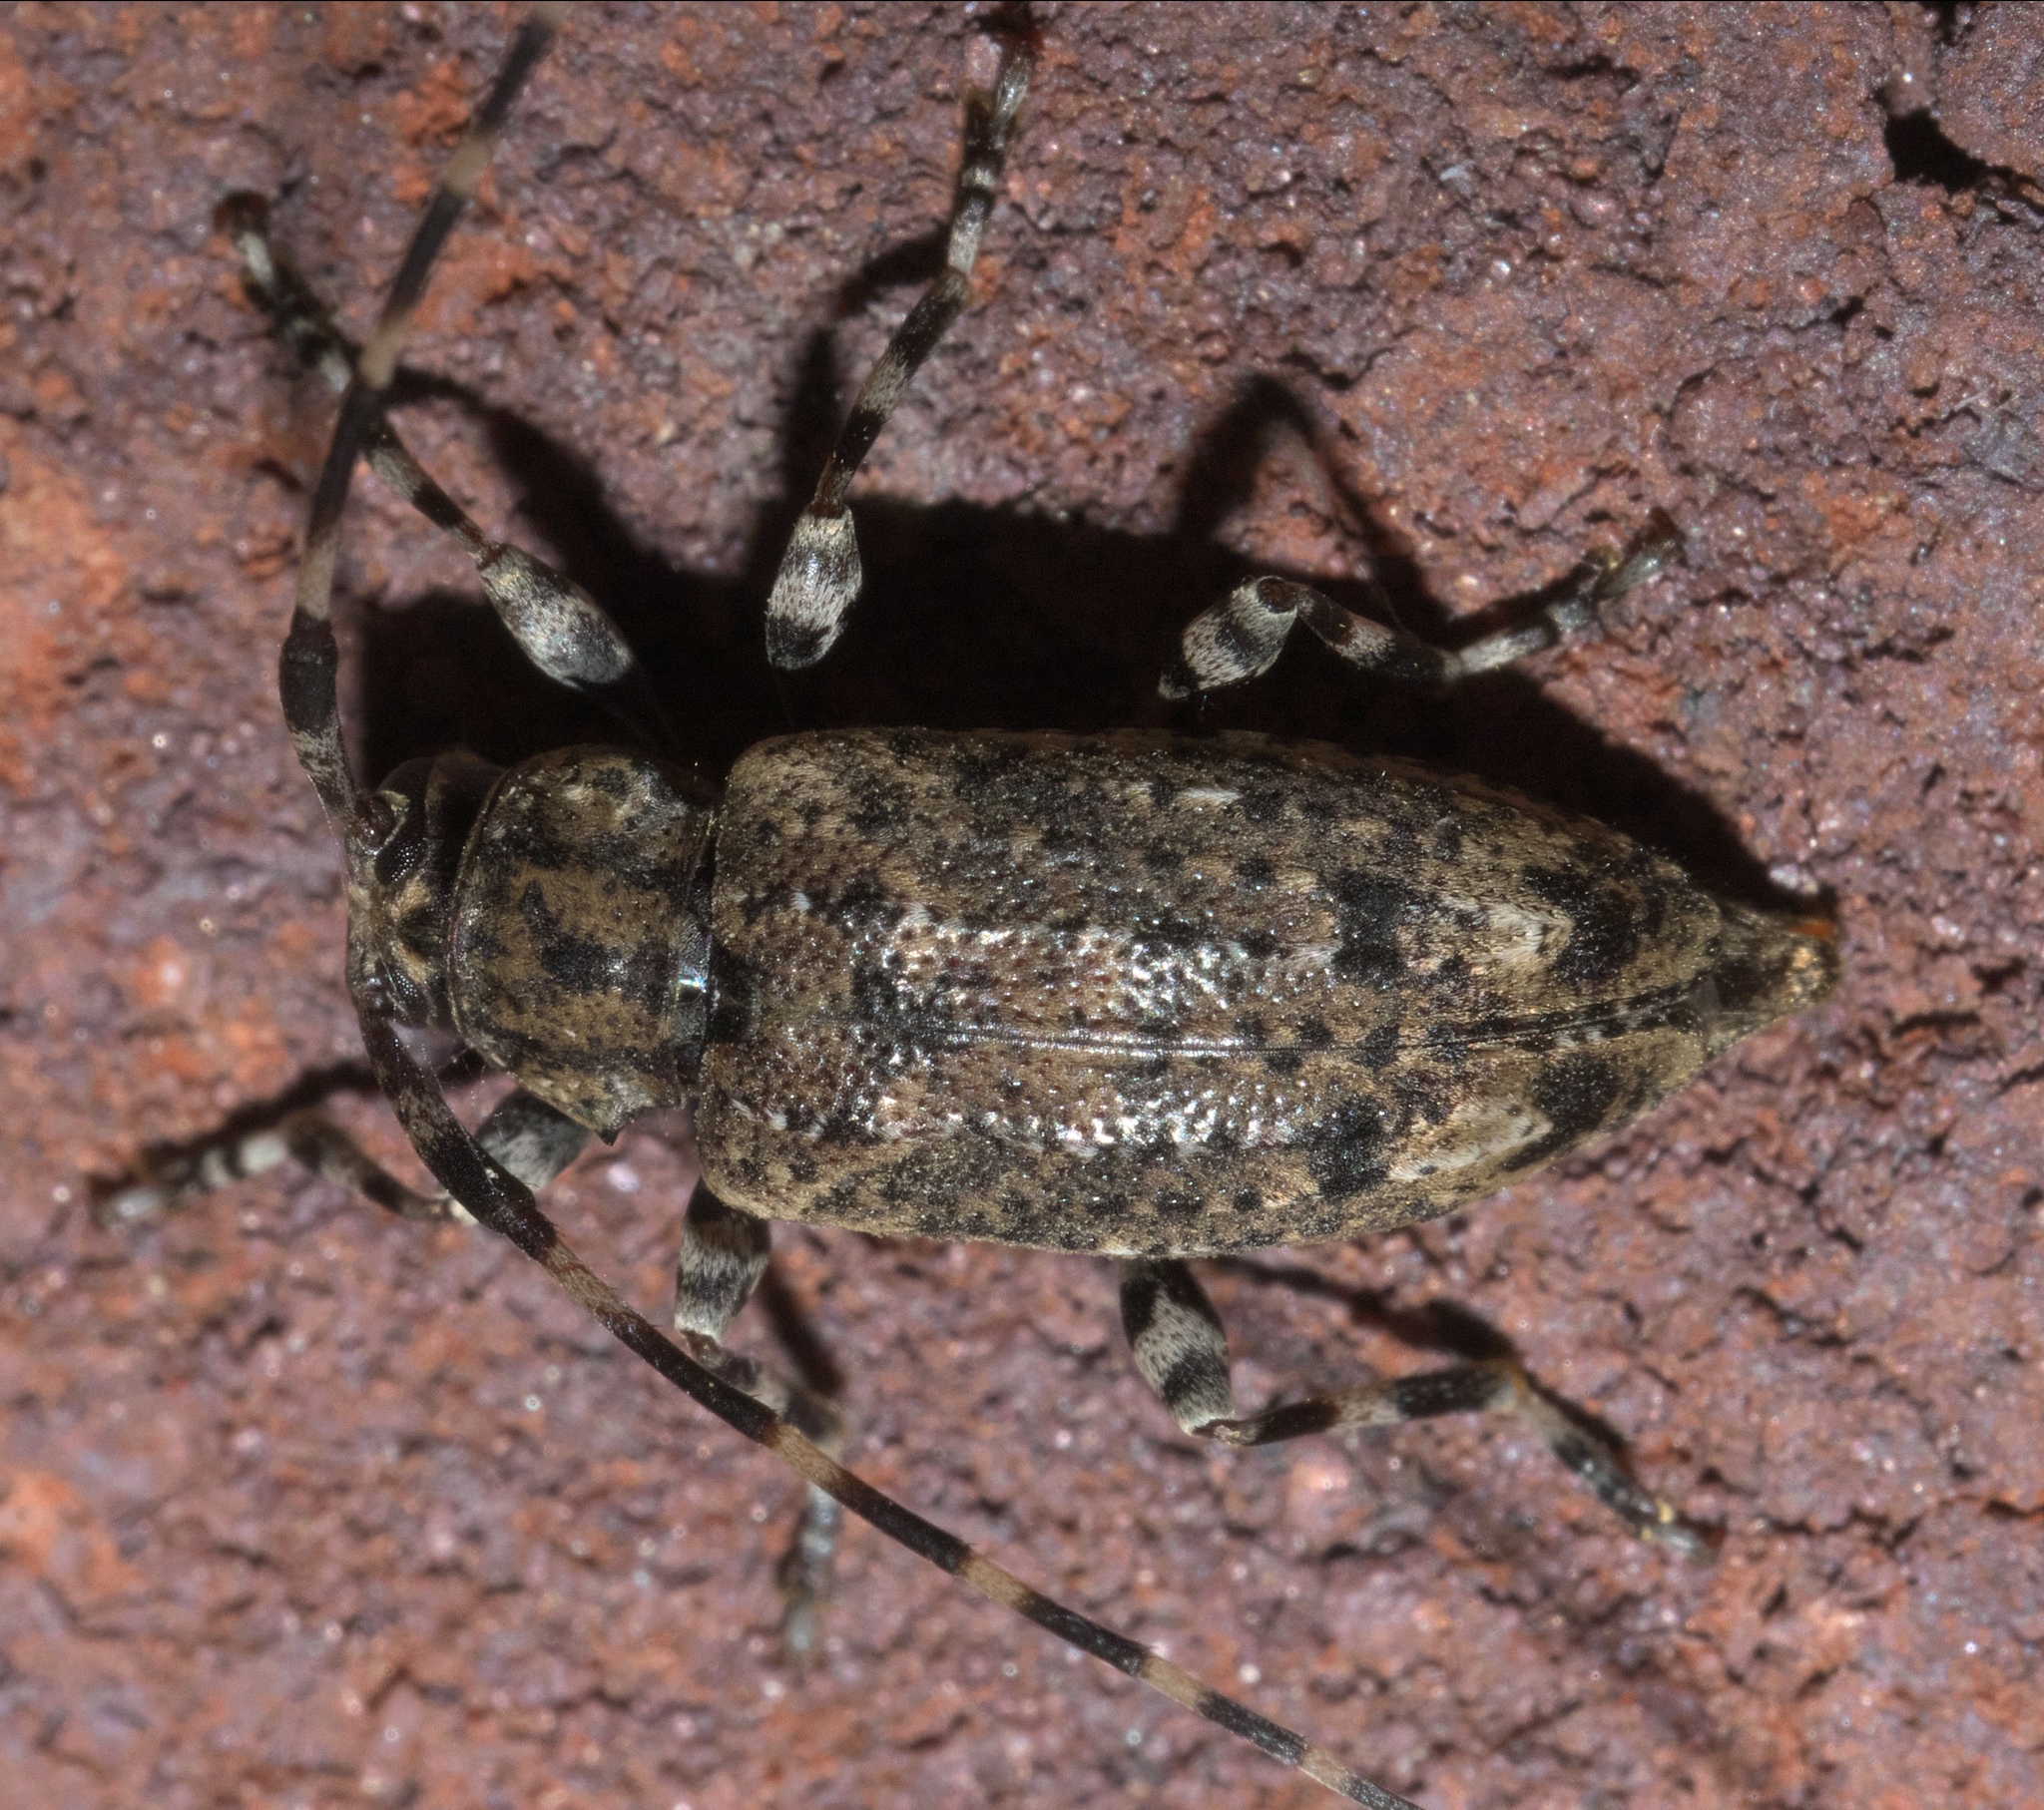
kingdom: Animalia
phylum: Arthropoda
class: Insecta
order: Coleoptera
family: Cerambycidae
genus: Astyleiopus
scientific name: Astyleiopus variegatus
